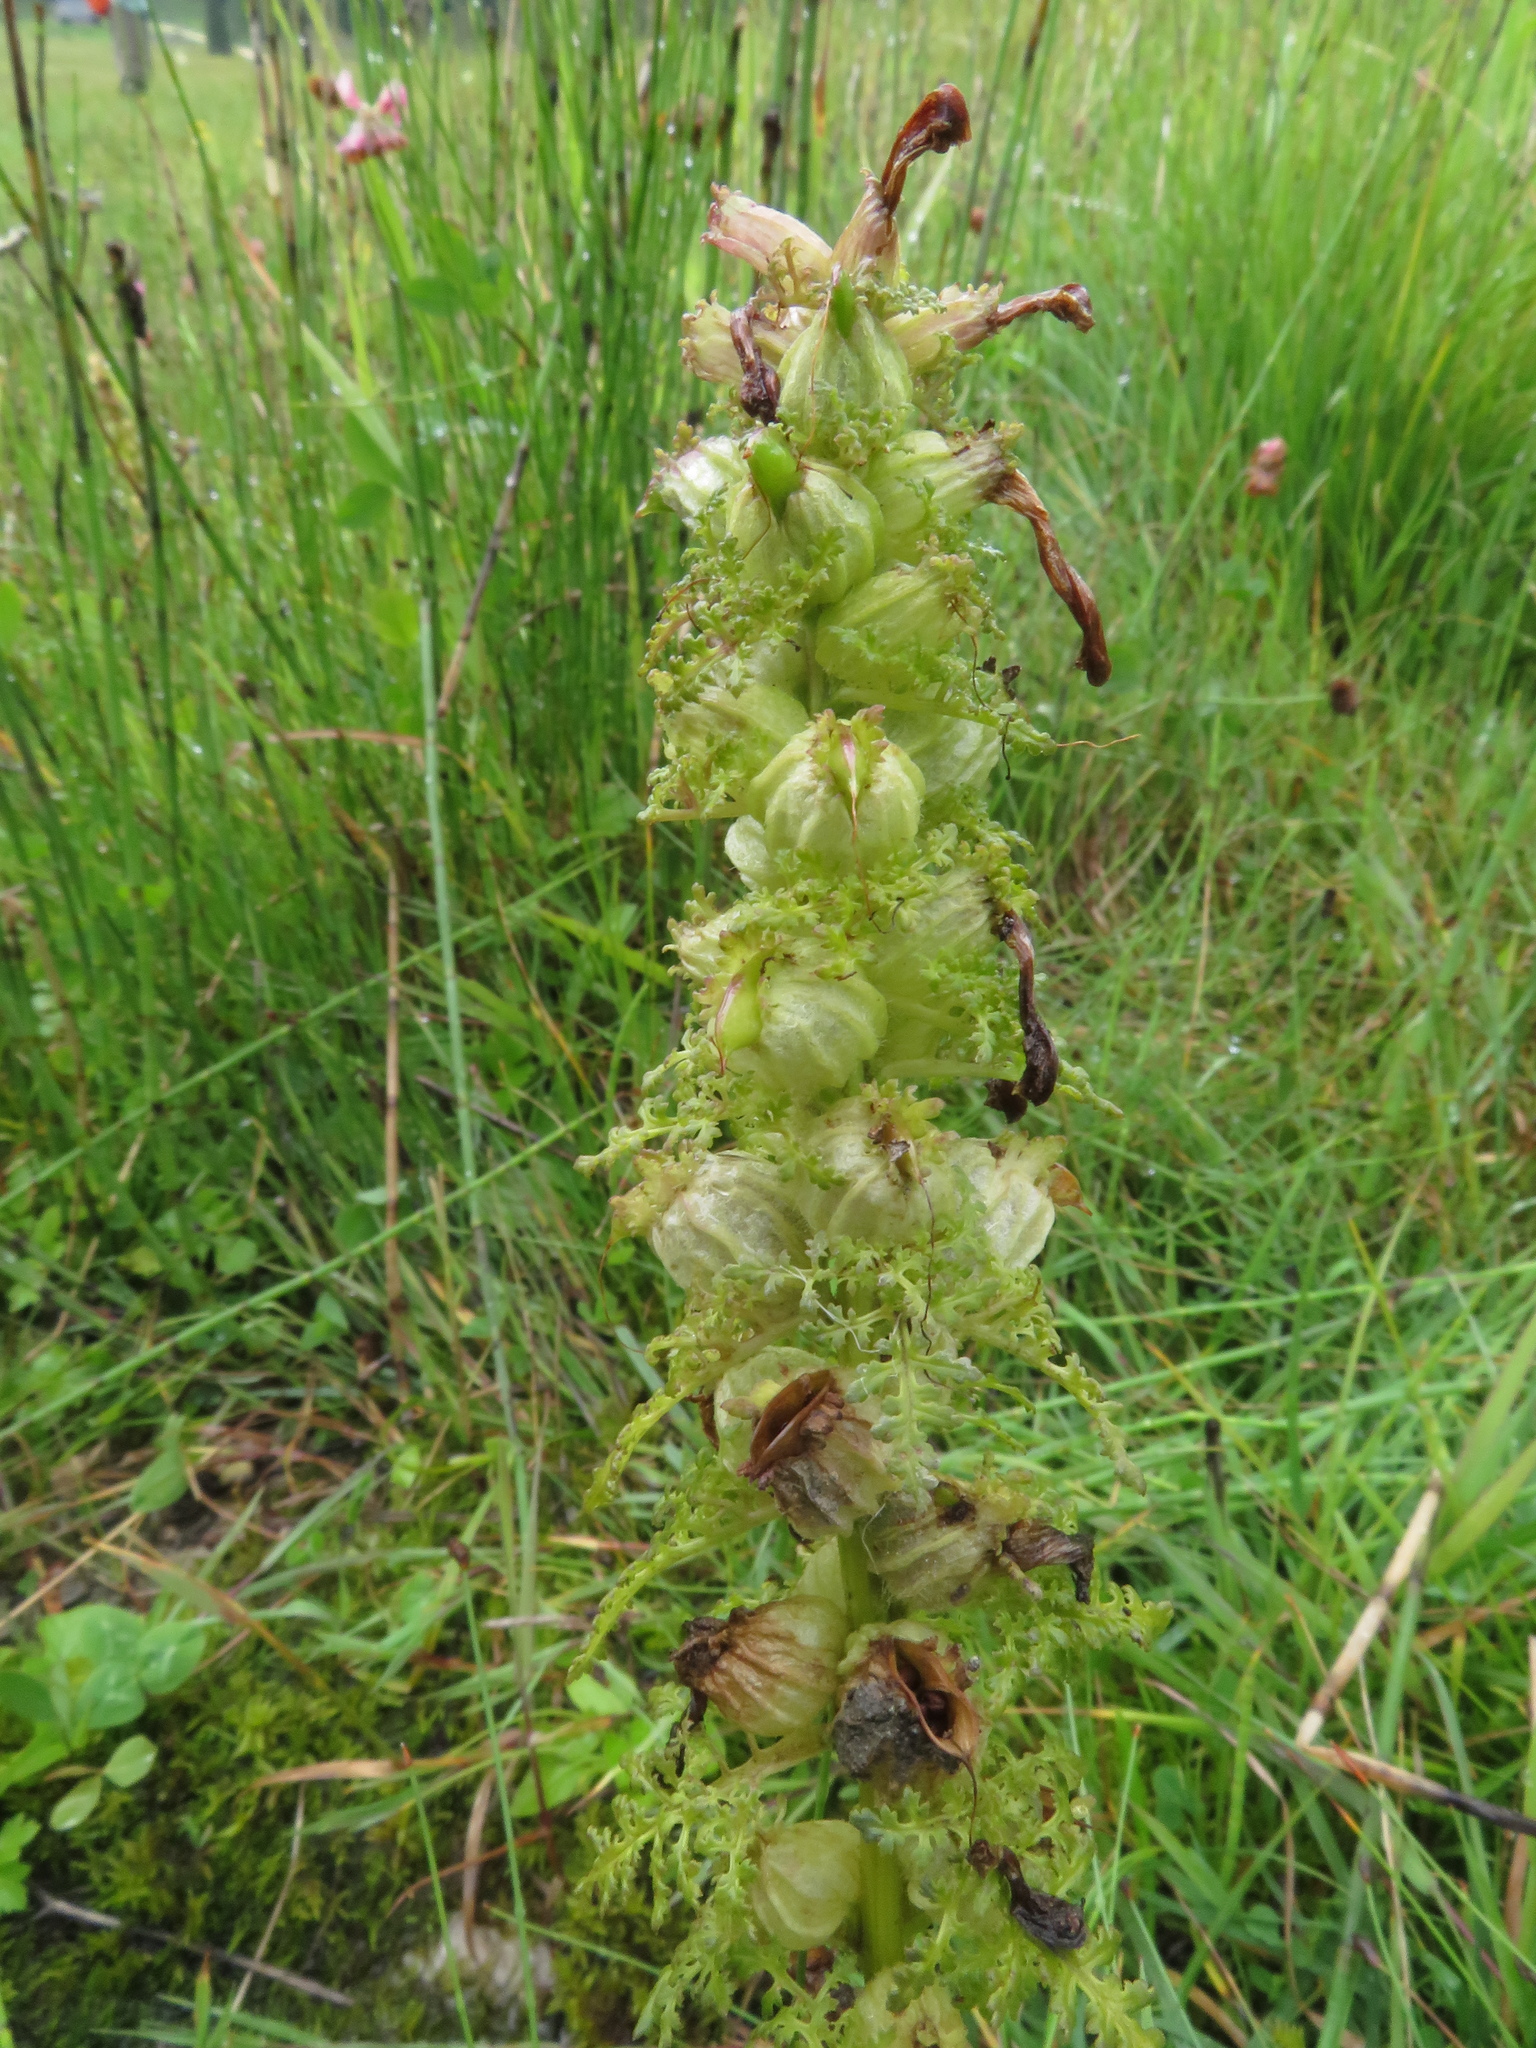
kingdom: Plantae
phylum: Tracheophyta
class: Magnoliopsida
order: Lamiales
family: Orobanchaceae
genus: Pedicularis
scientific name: Pedicularis palustris
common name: Marsh lousewort
